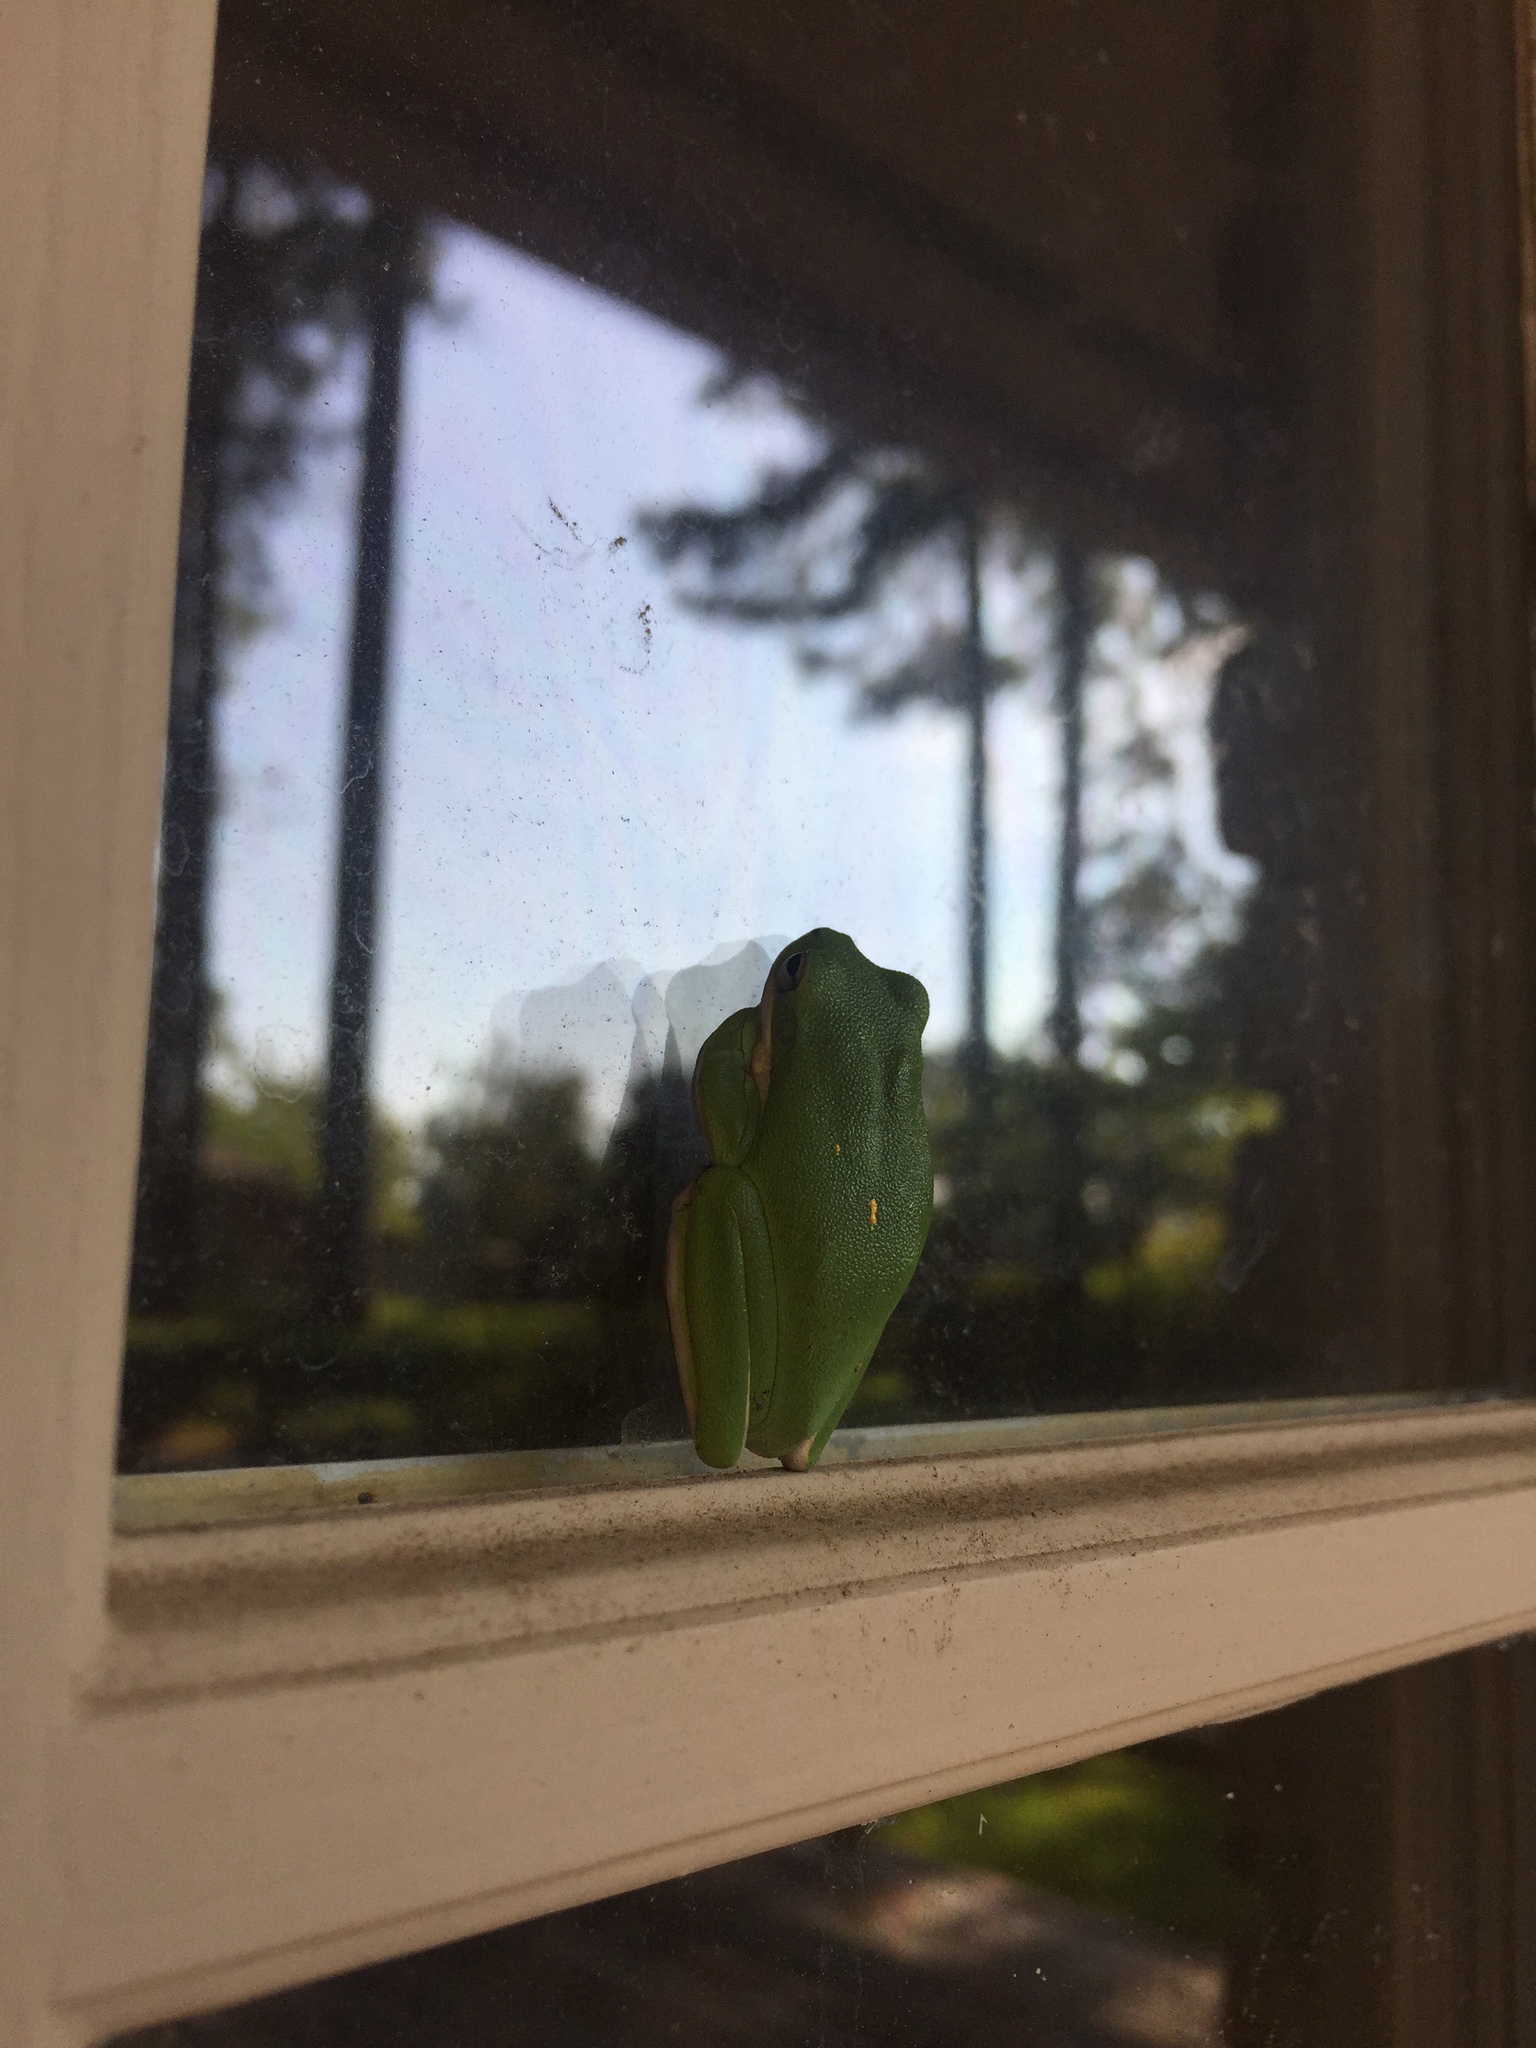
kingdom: Animalia
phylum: Chordata
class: Amphibia
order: Anura
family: Hylidae
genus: Dryophytes
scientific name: Dryophytes cinereus
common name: Green treefrog
